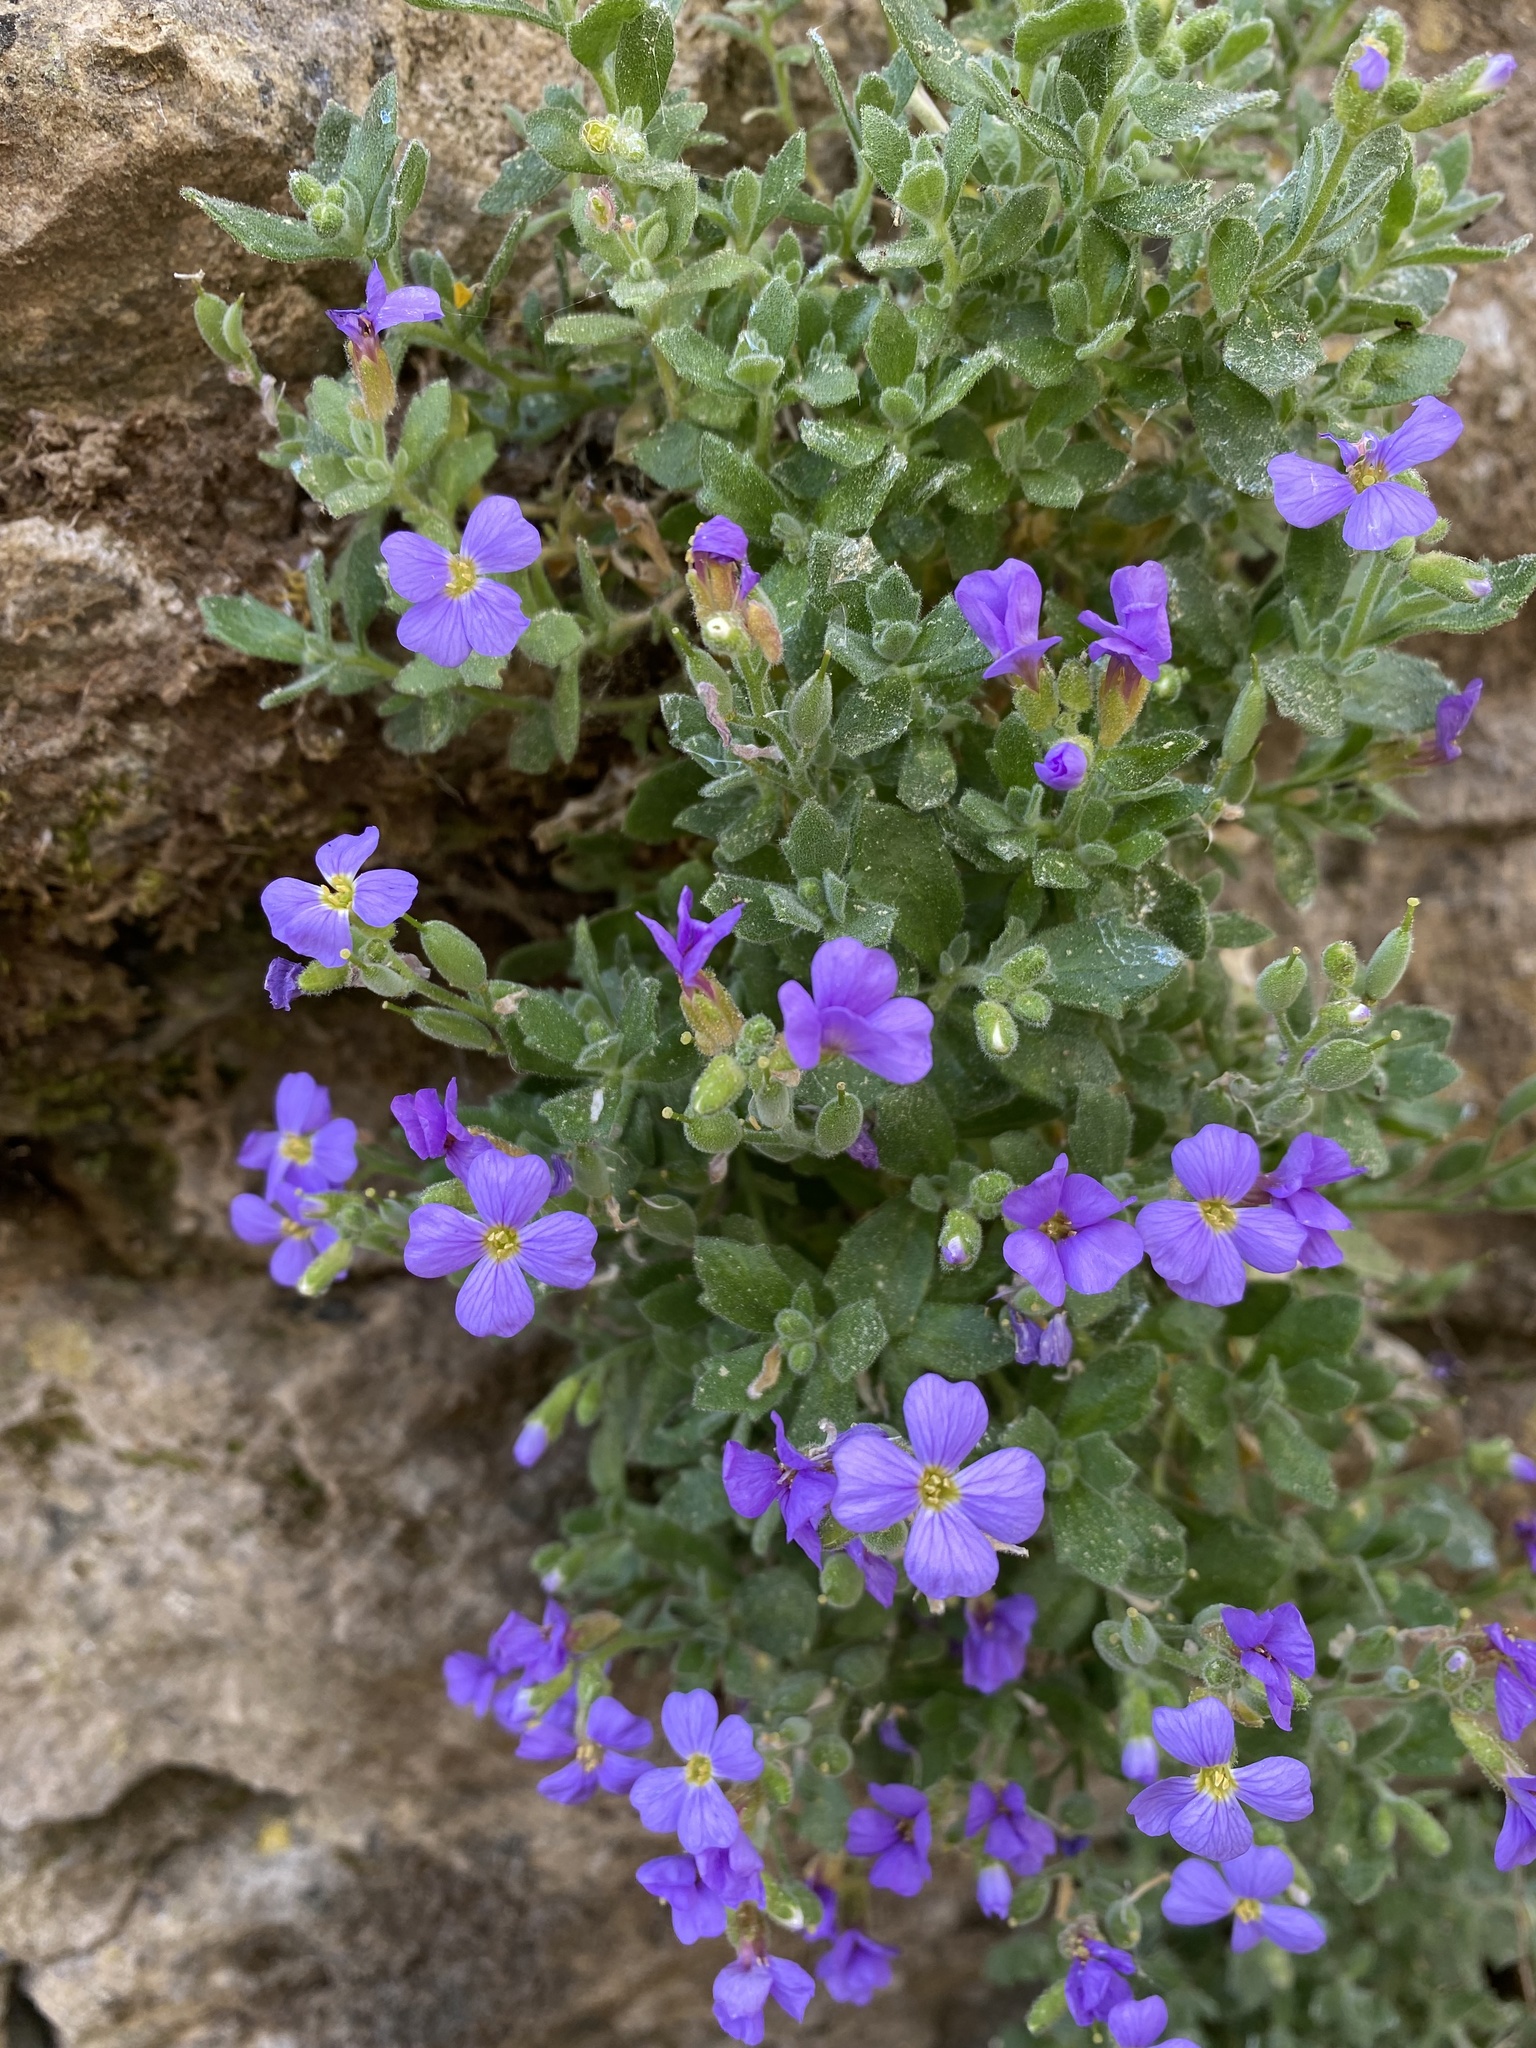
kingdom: Plantae
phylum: Tracheophyta
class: Magnoliopsida
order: Brassicales
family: Brassicaceae
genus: Aubrieta
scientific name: Aubrieta deltoidea
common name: Aubretia
